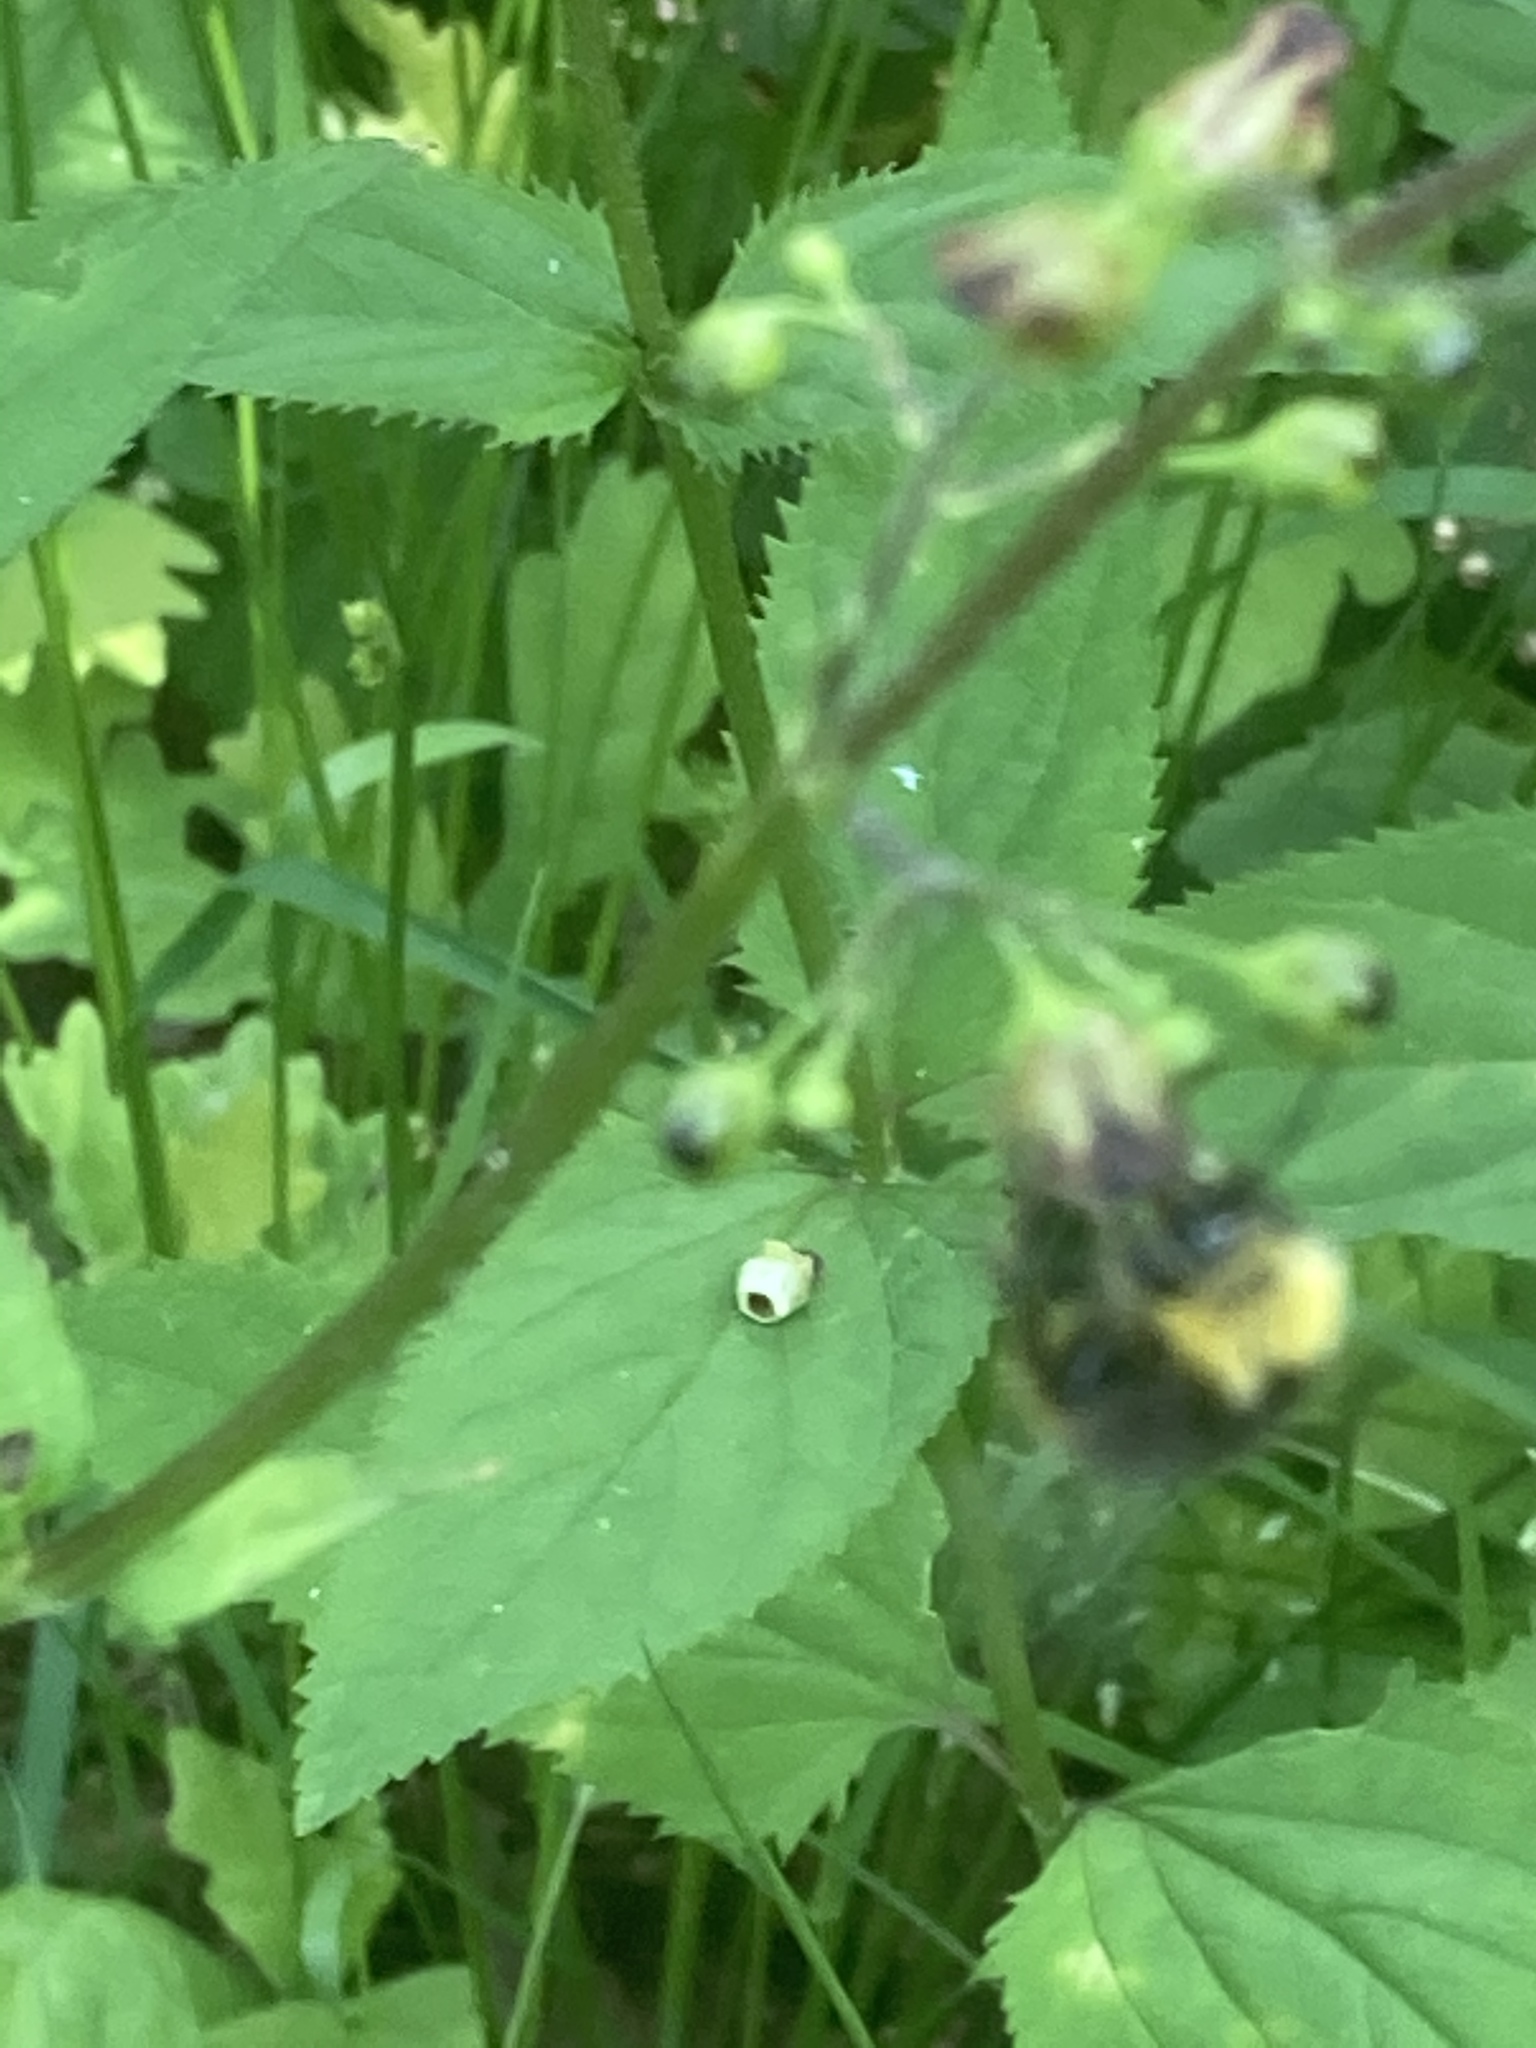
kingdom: Animalia
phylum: Arthropoda
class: Insecta
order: Hymenoptera
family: Apidae
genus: Bombus
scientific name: Bombus pratorum
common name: Early humble-bee
